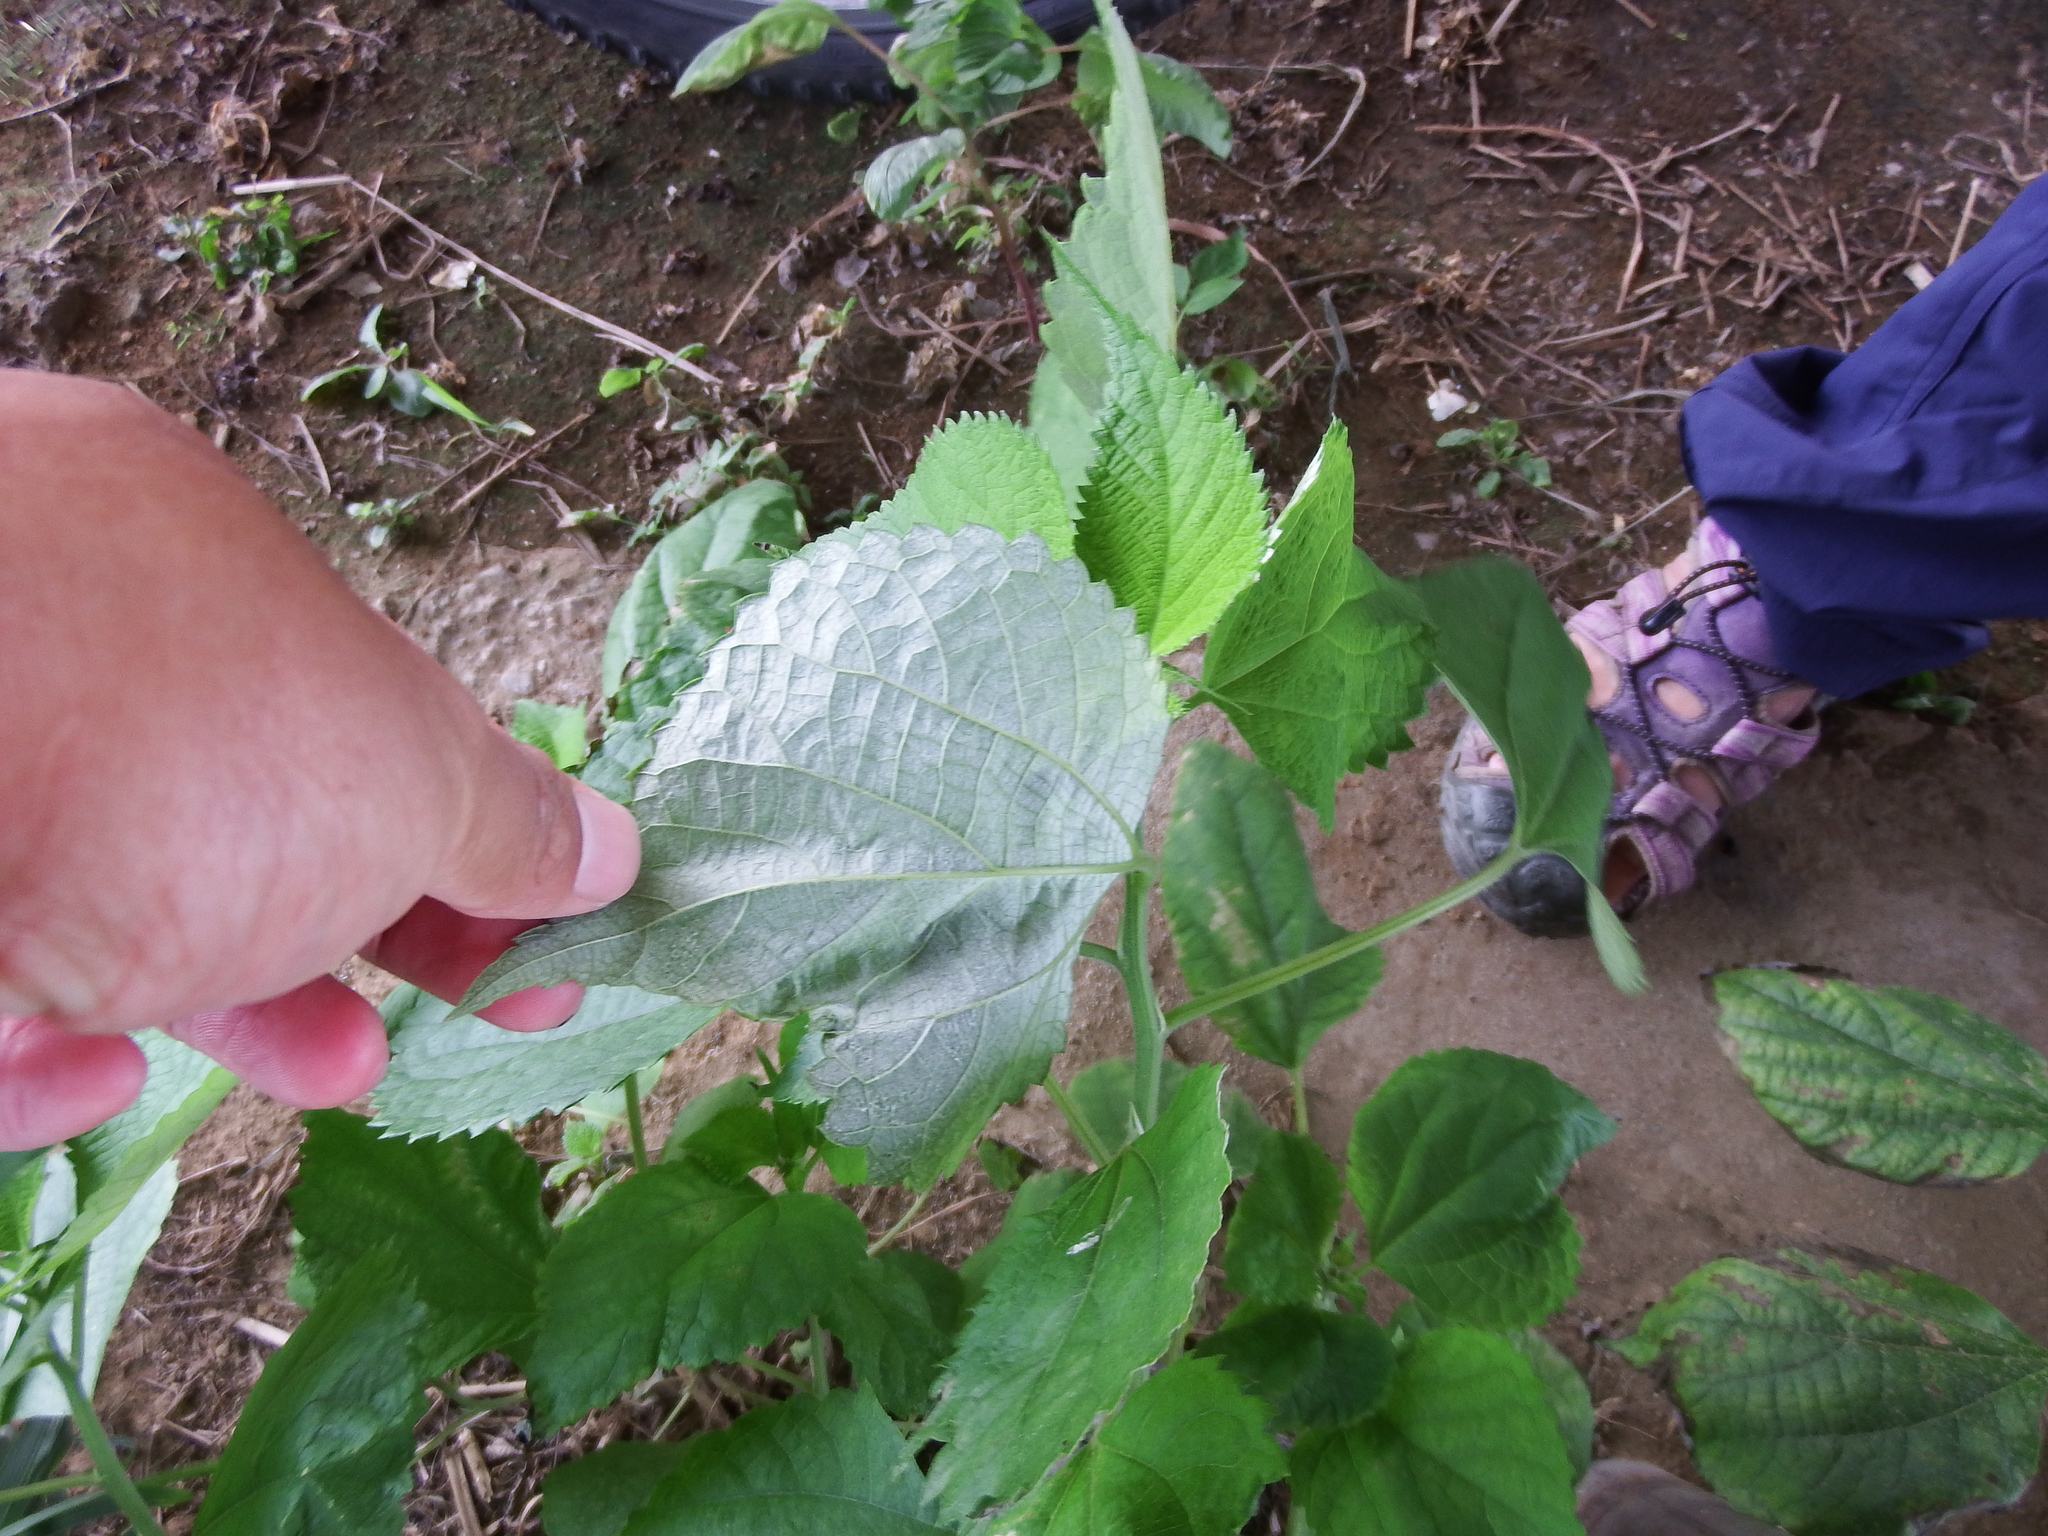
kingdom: Plantae
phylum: Tracheophyta
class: Magnoliopsida
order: Rosales
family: Urticaceae
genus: Boehmeria
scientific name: Boehmeria nivea
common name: Ramie chinese grass
